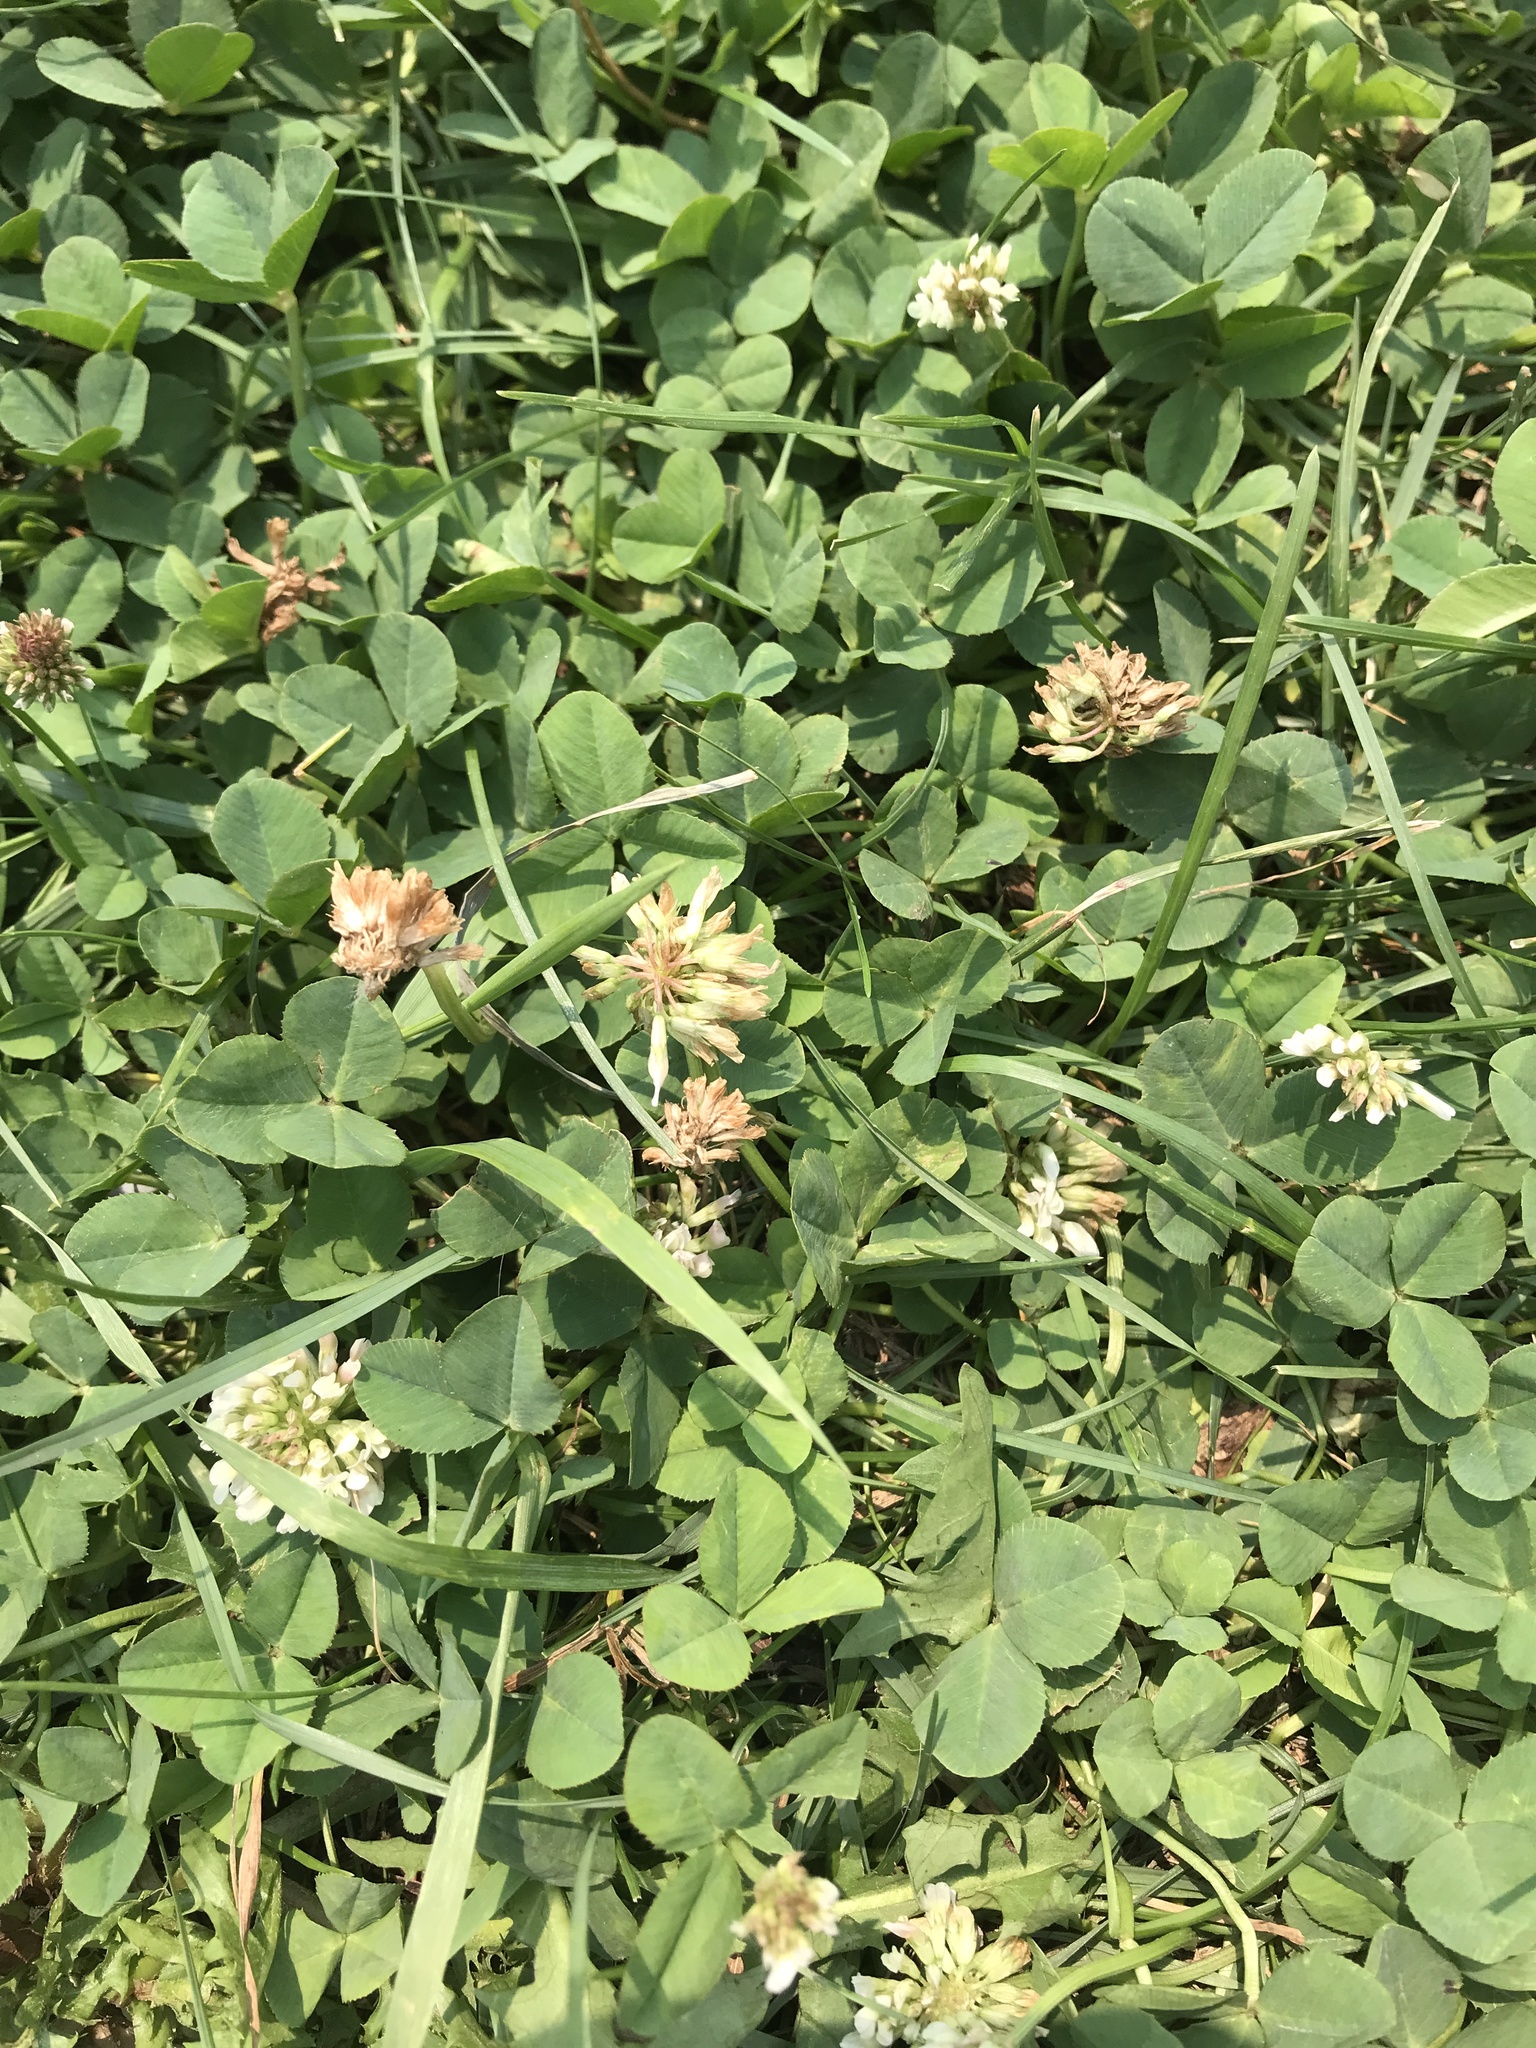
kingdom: Plantae
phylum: Tracheophyta
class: Magnoliopsida
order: Fabales
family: Fabaceae
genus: Trifolium
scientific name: Trifolium repens
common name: White clover
